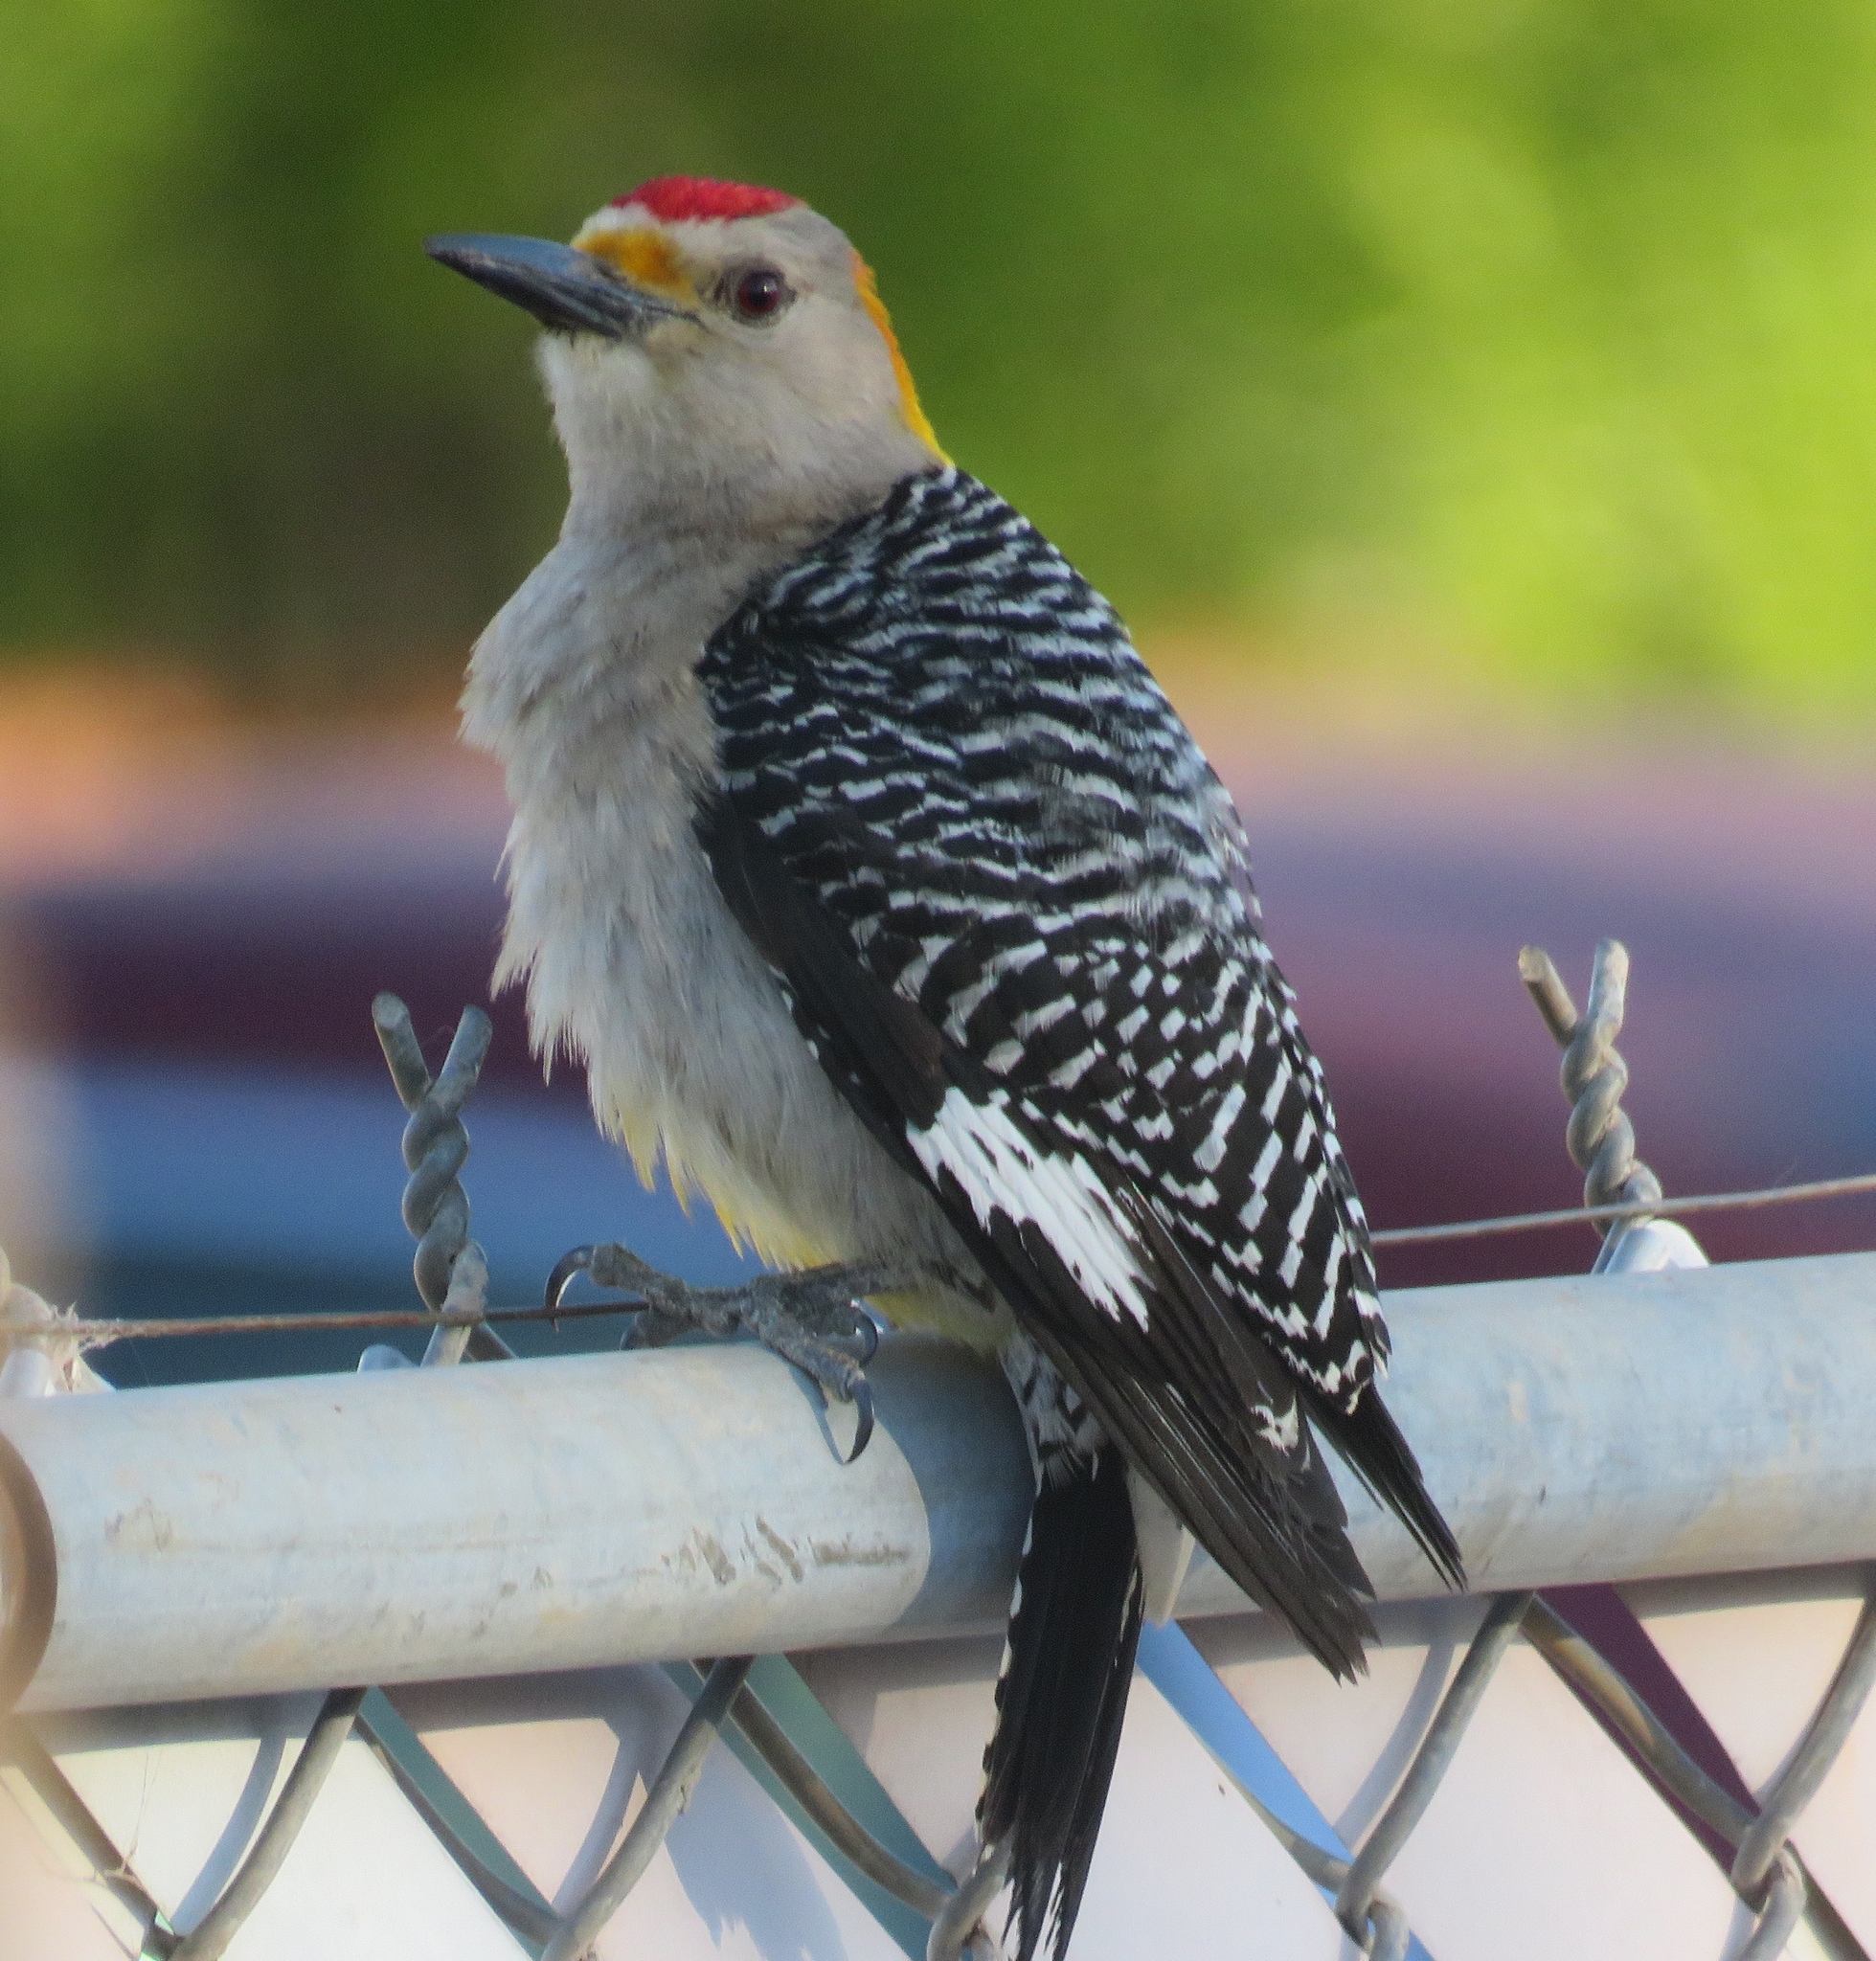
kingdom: Animalia
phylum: Chordata
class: Aves
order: Piciformes
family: Picidae
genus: Melanerpes
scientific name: Melanerpes aurifrons
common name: Golden-fronted woodpecker
